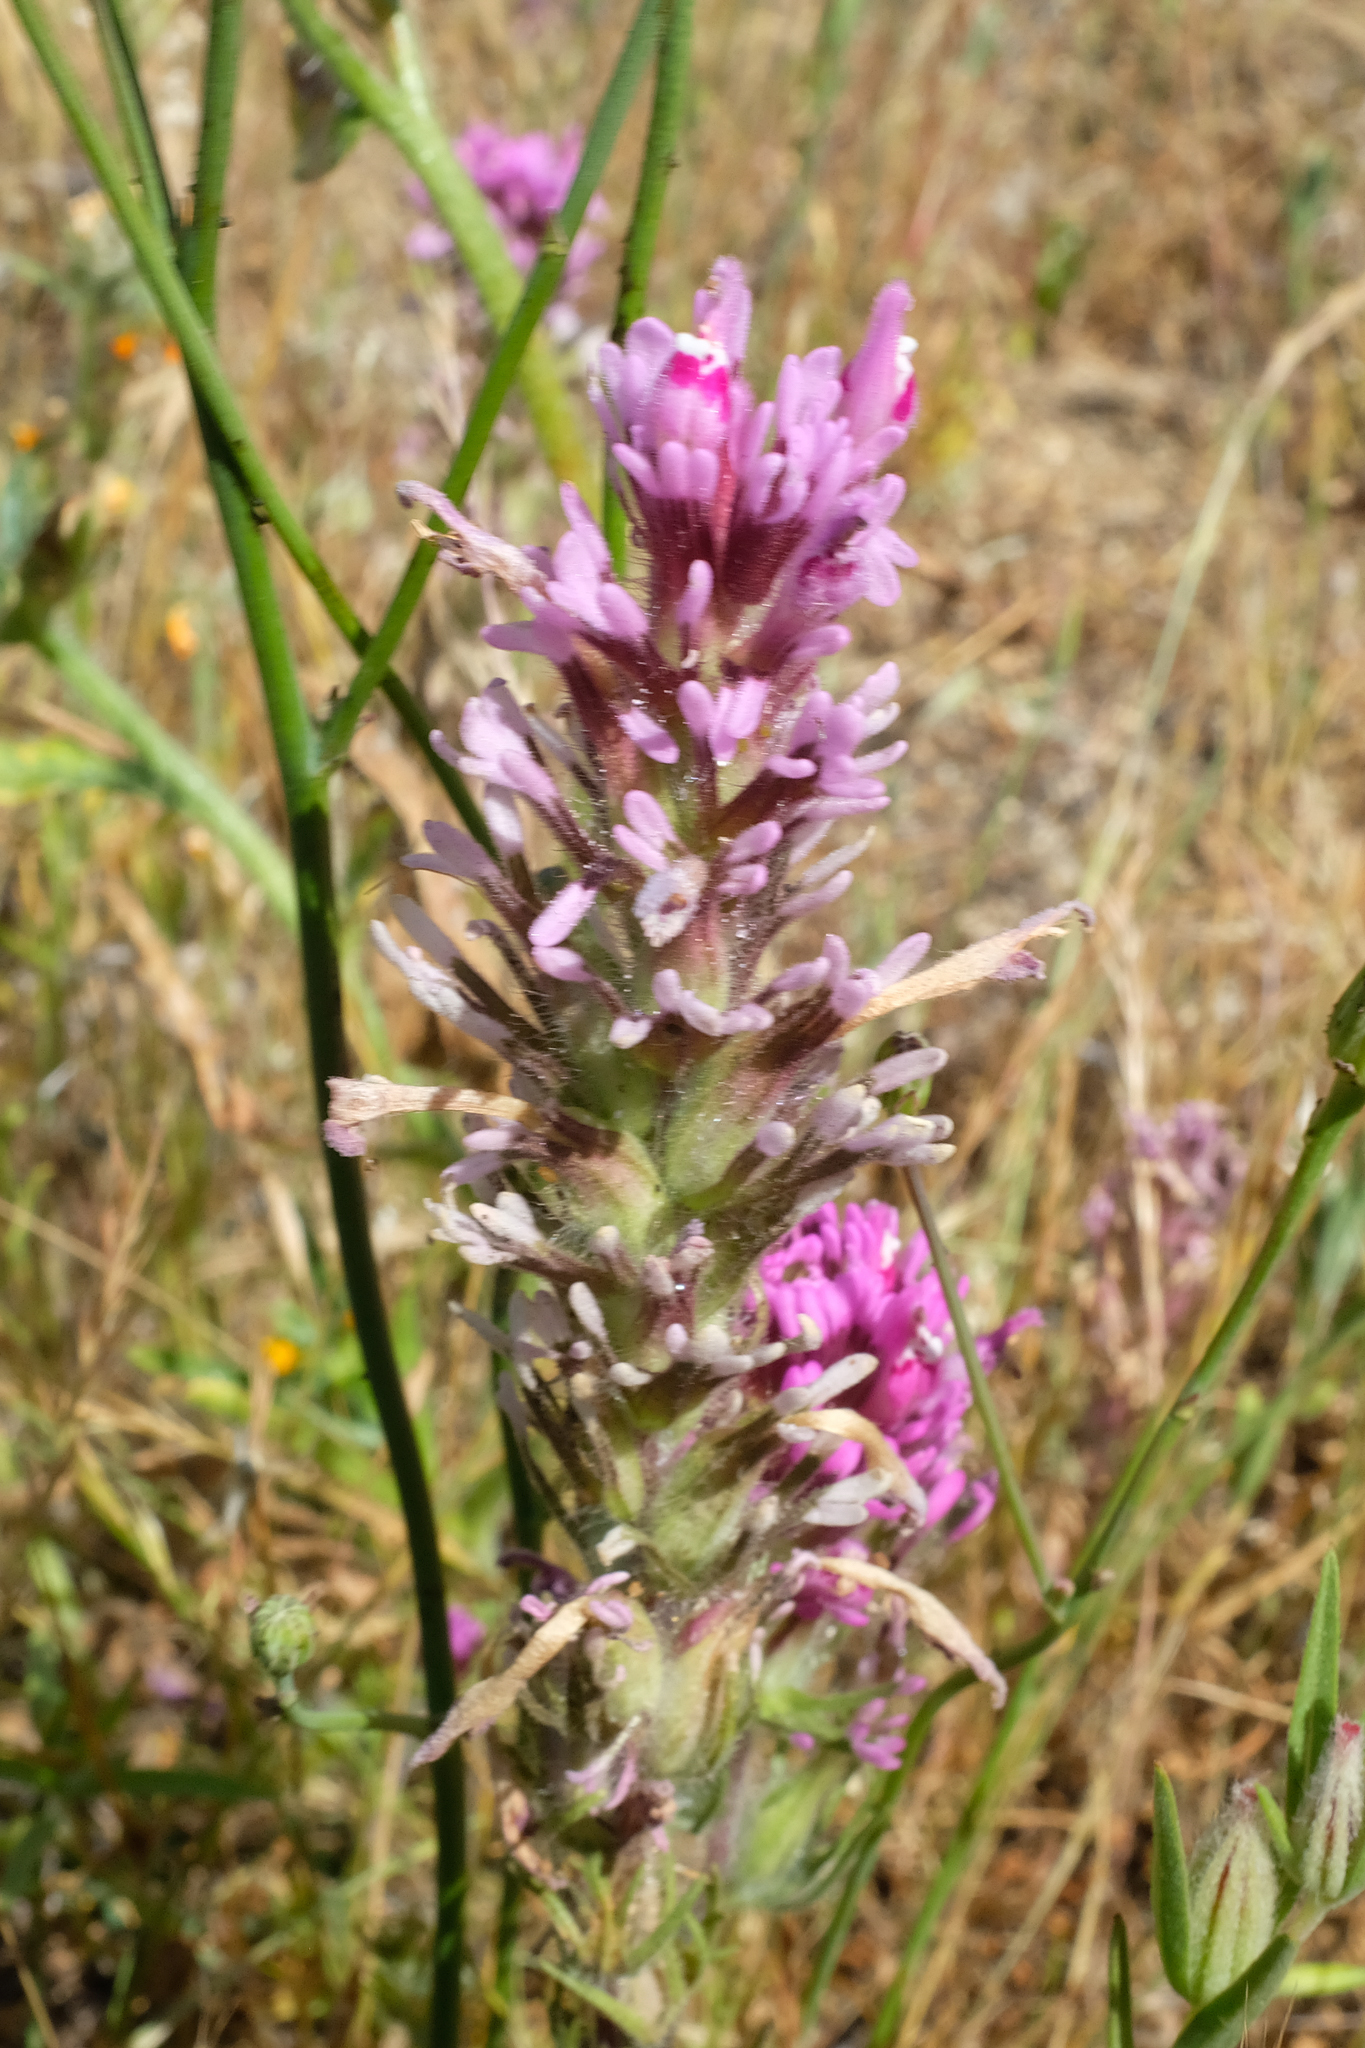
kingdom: Plantae
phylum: Tracheophyta
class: Magnoliopsida
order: Lamiales
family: Orobanchaceae
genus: Castilleja
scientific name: Castilleja exserta
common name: Purple owl-clover
